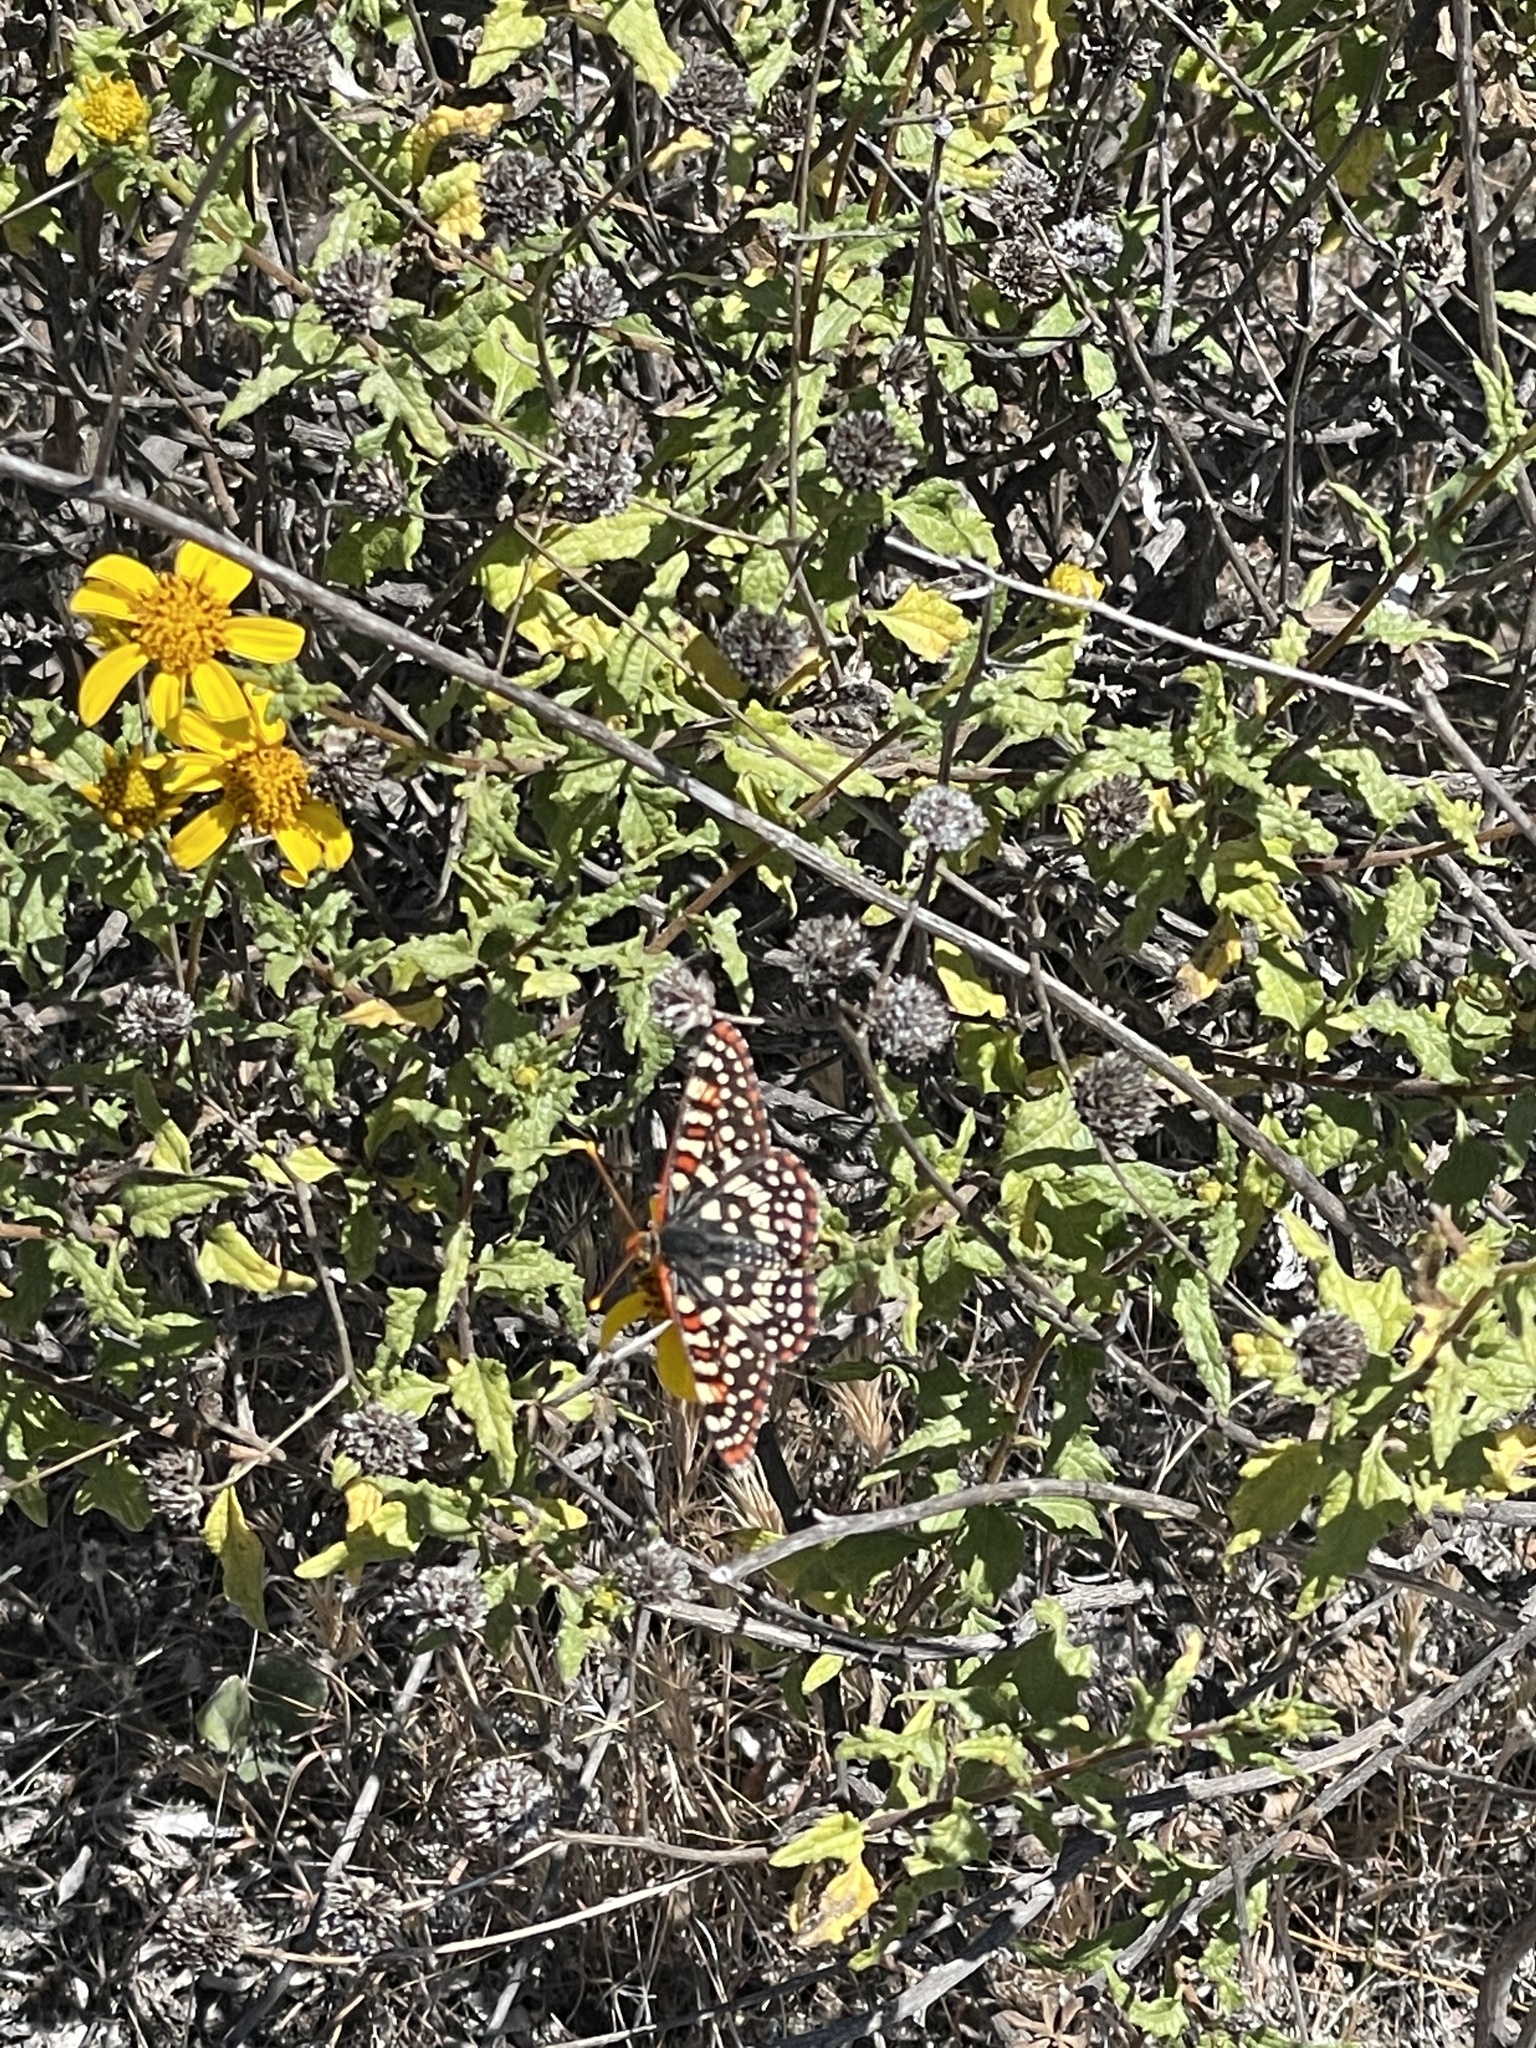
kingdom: Animalia
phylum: Arthropoda
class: Insecta
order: Lepidoptera
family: Nymphalidae
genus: Occidryas
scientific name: Occidryas chalcedona
